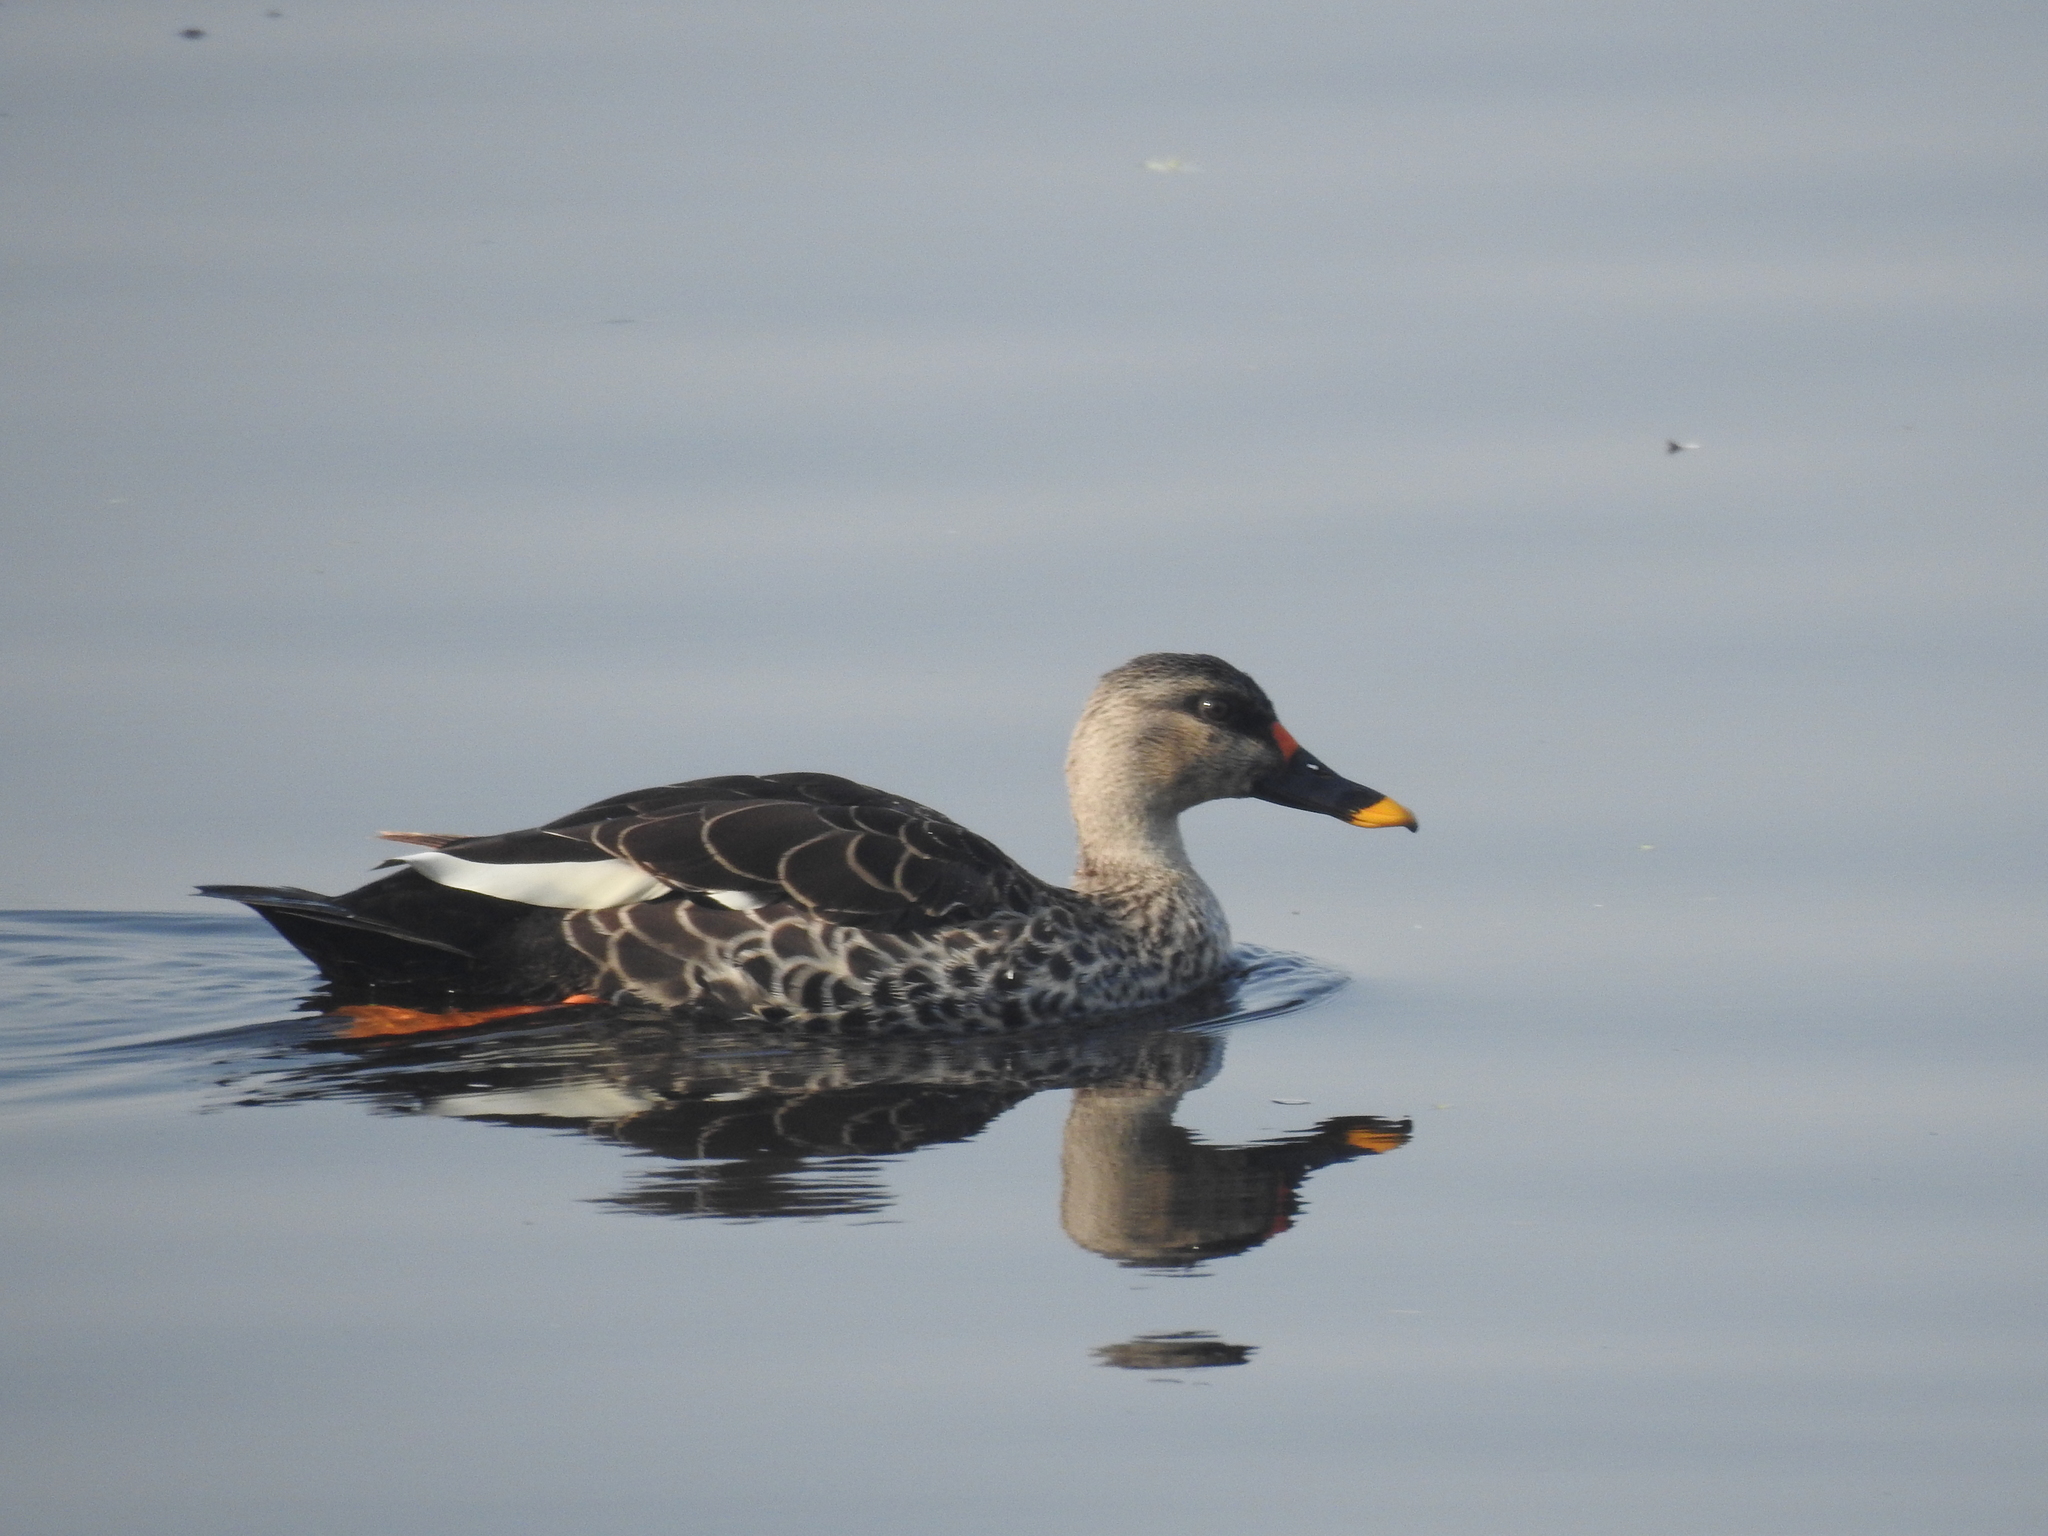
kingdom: Animalia
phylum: Chordata
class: Aves
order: Anseriformes
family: Anatidae
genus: Anas
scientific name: Anas poecilorhyncha
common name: Indian spot-billed duck
